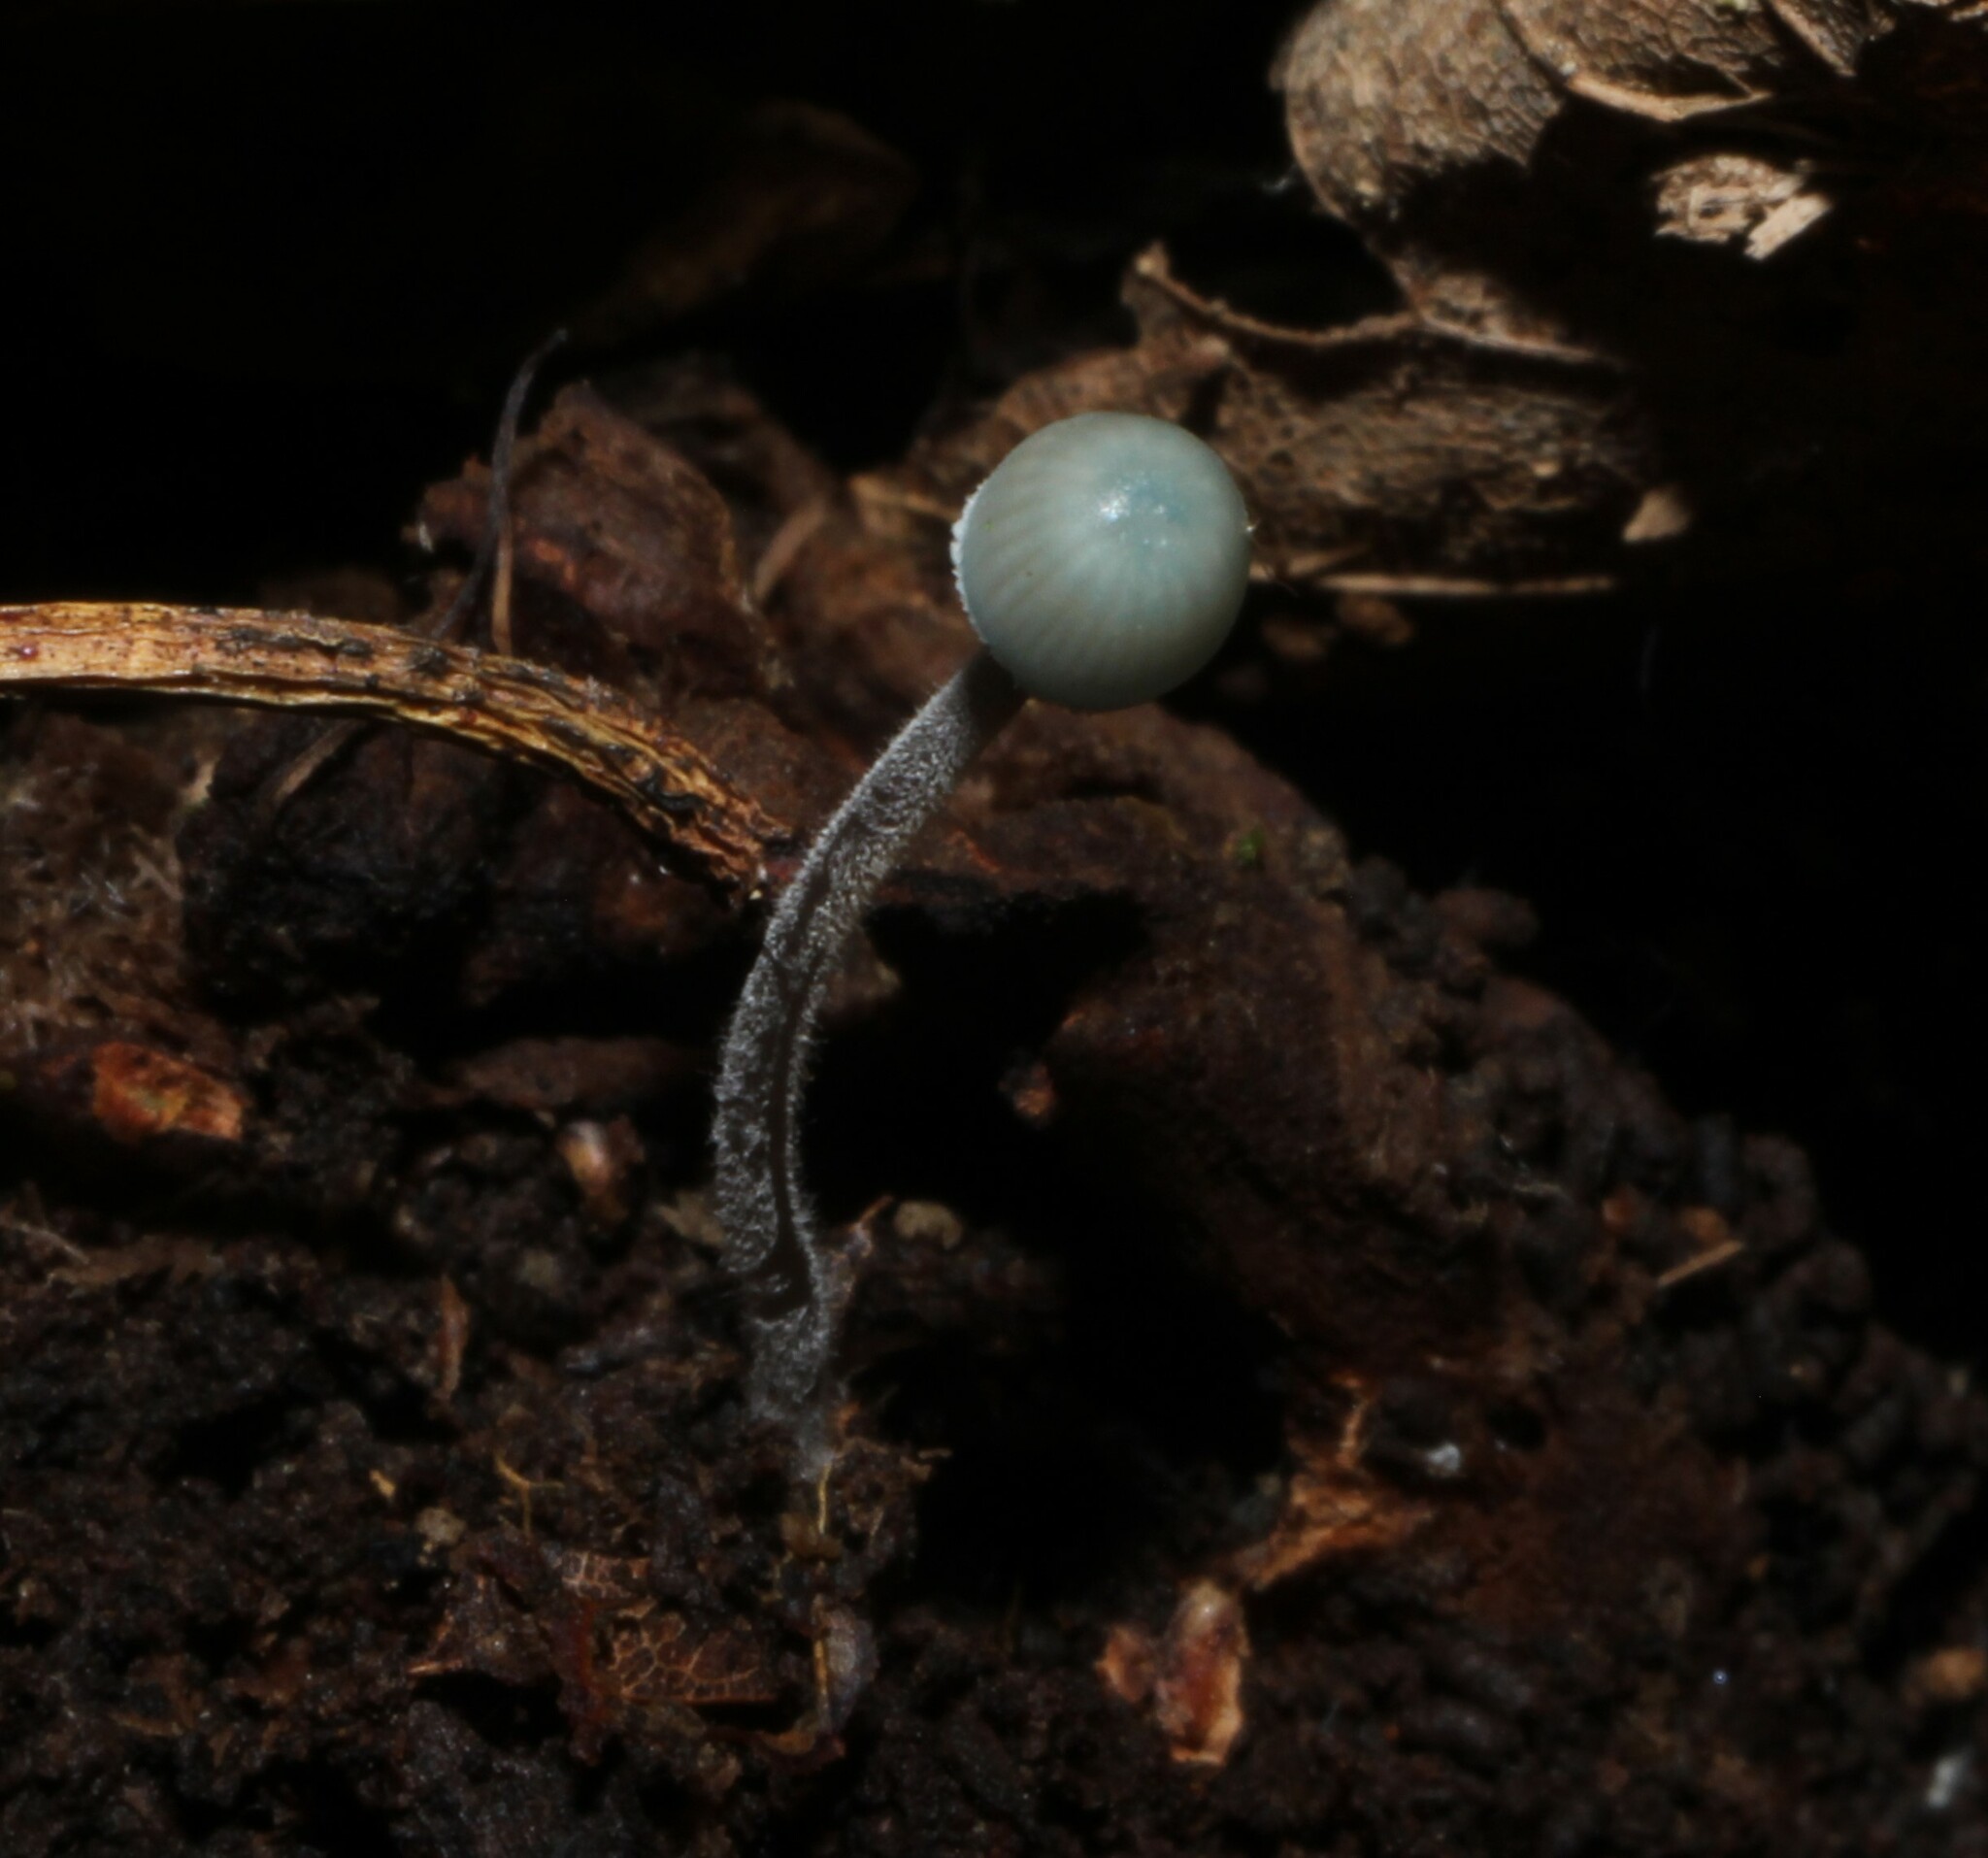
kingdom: Fungi
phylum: Basidiomycota
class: Agaricomycetes
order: Agaricales
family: Mycenaceae
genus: Mycena
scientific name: Mycena subcaerulea
